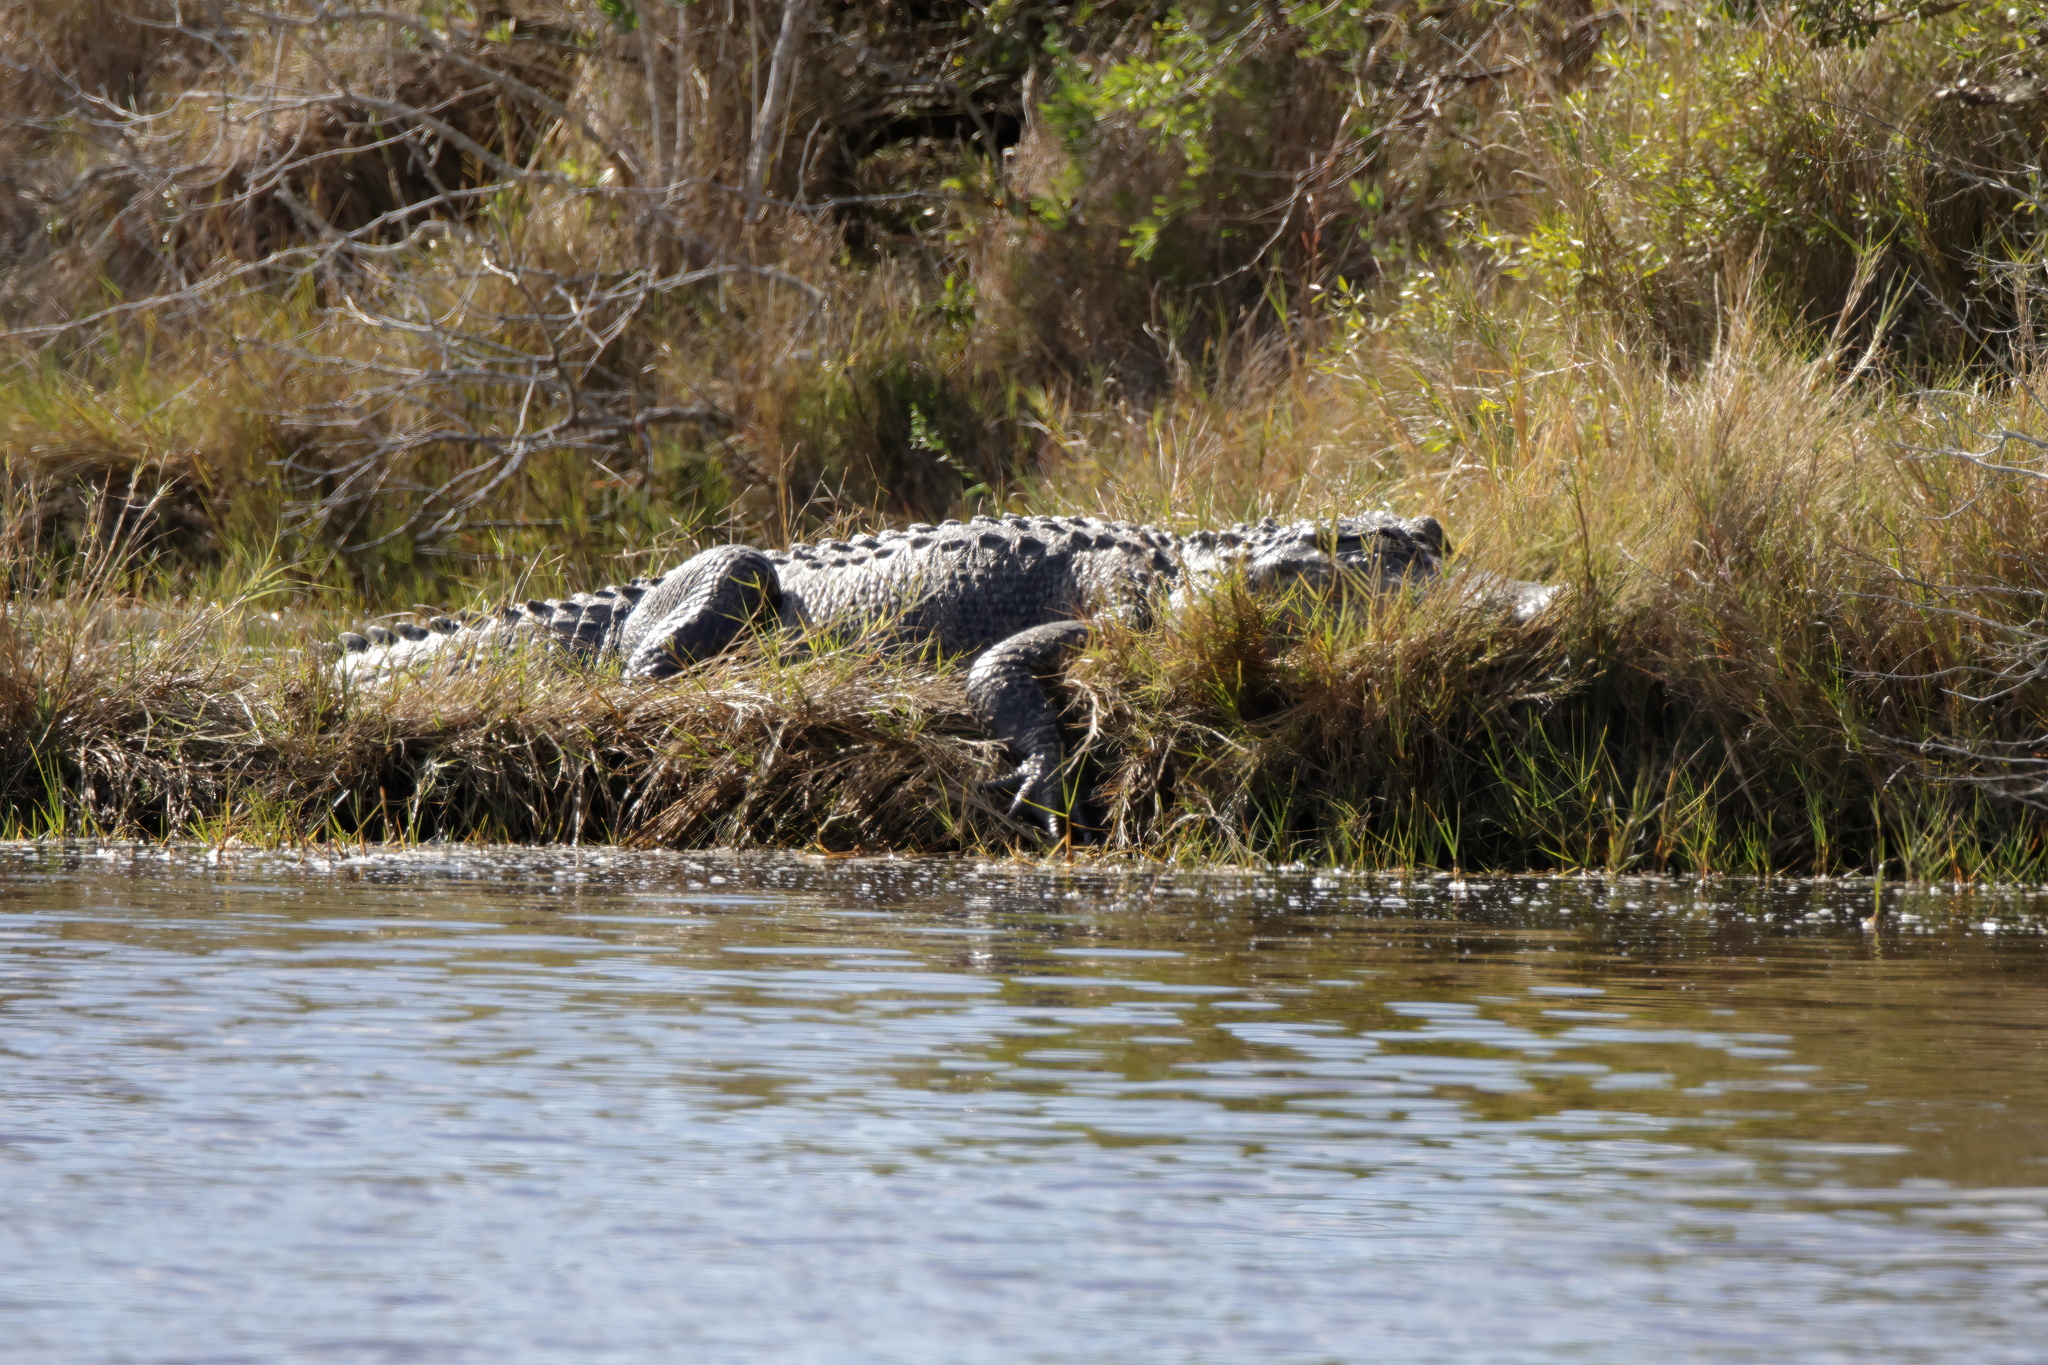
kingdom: Animalia
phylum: Chordata
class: Crocodylia
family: Alligatoridae
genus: Alligator
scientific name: Alligator mississippiensis
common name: American alligator
